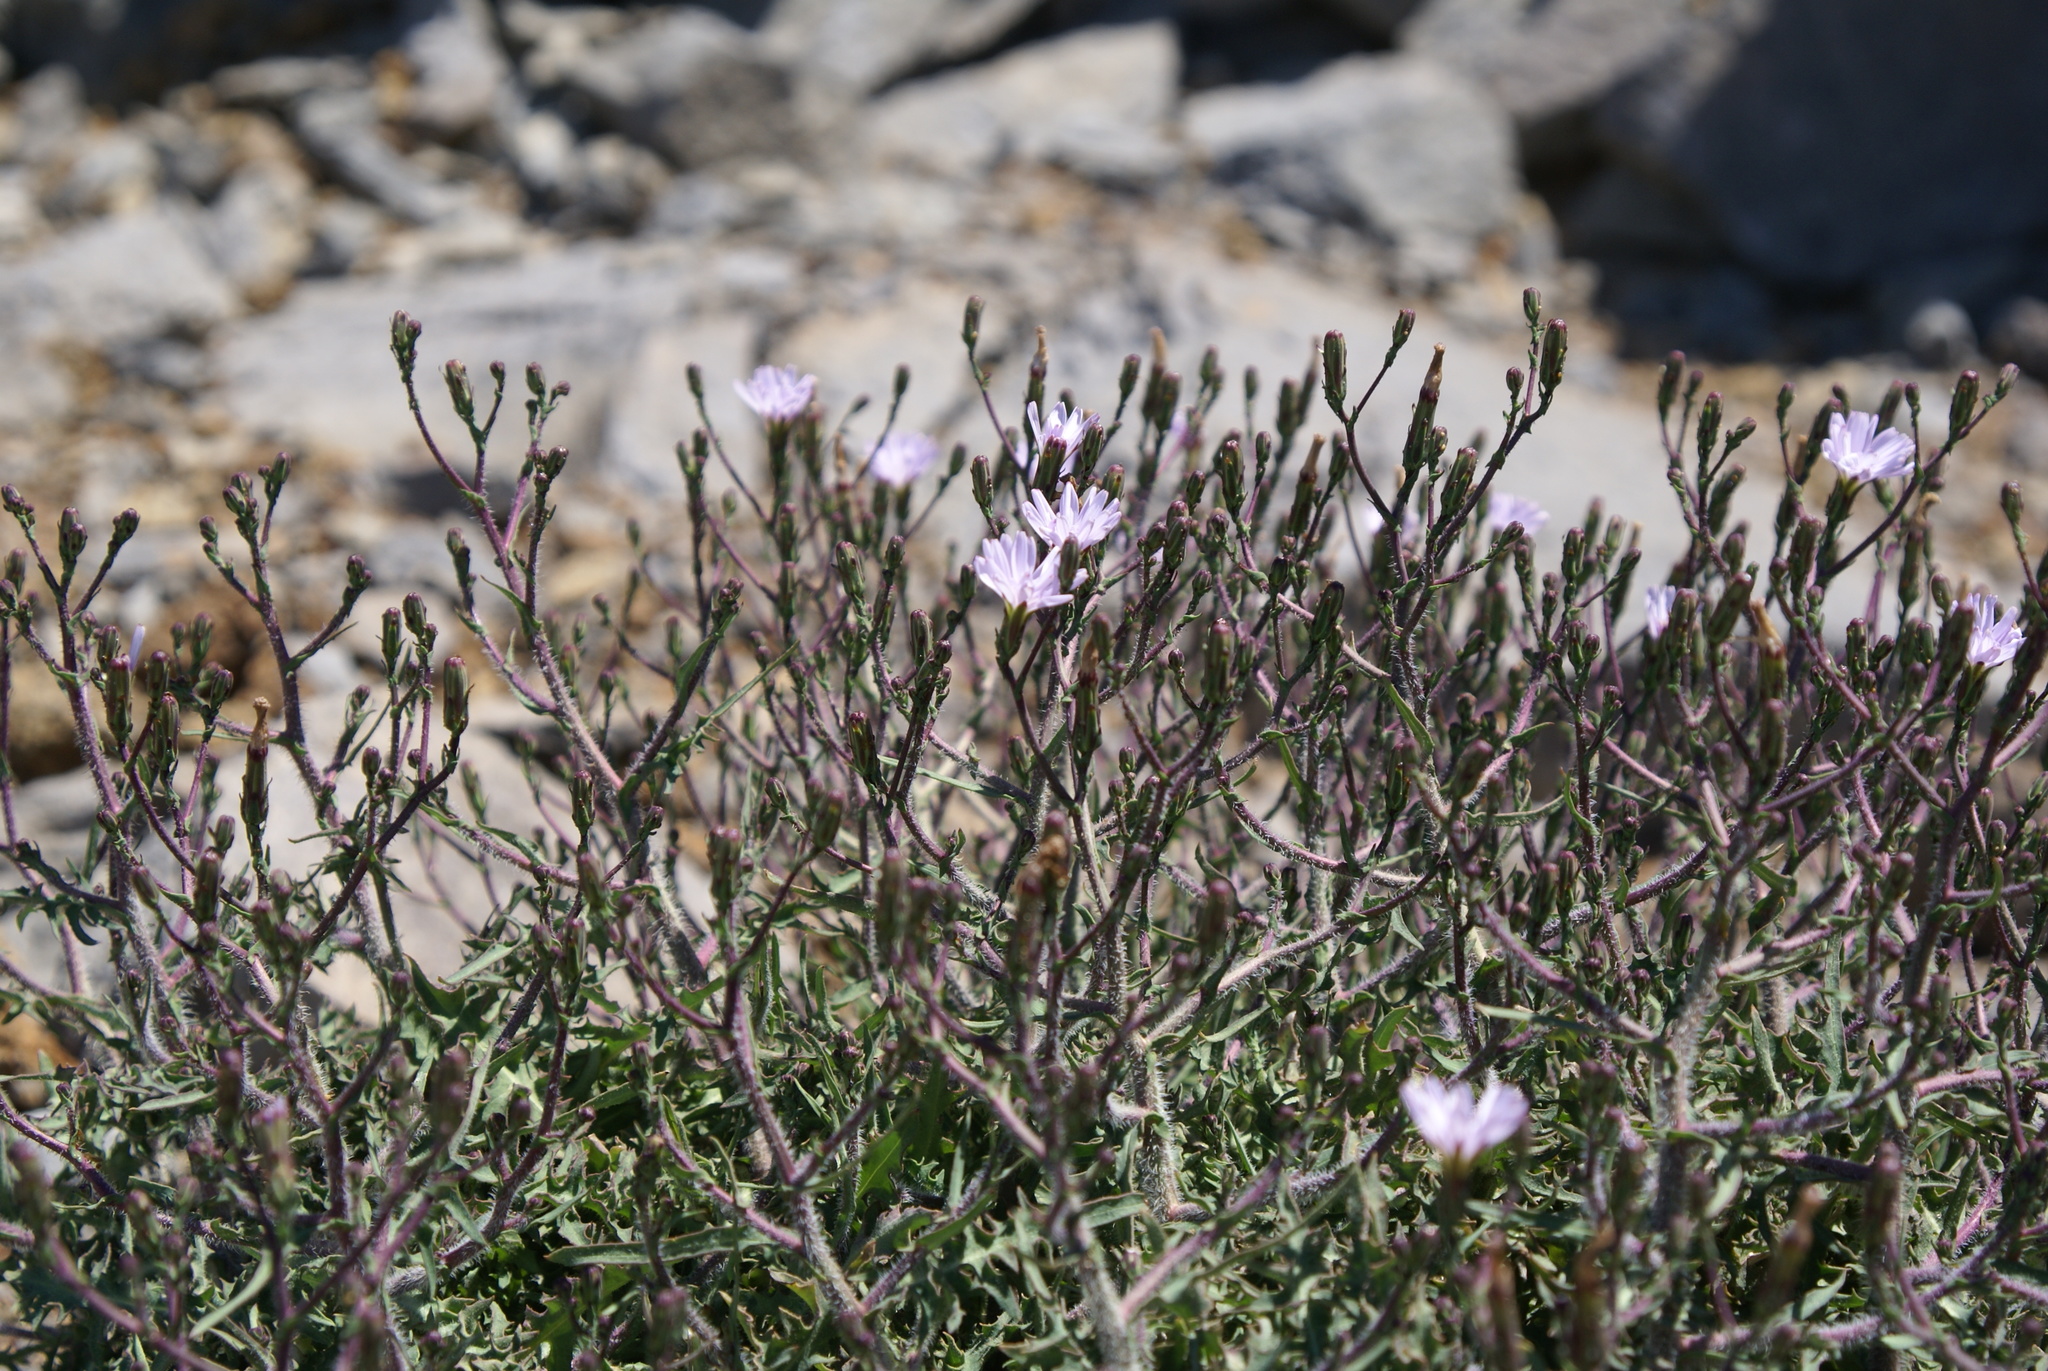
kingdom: Plantae
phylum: Tracheophyta
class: Magnoliopsida
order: Asterales
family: Asteraceae
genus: Lactuca
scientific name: Lactuca palmensis
